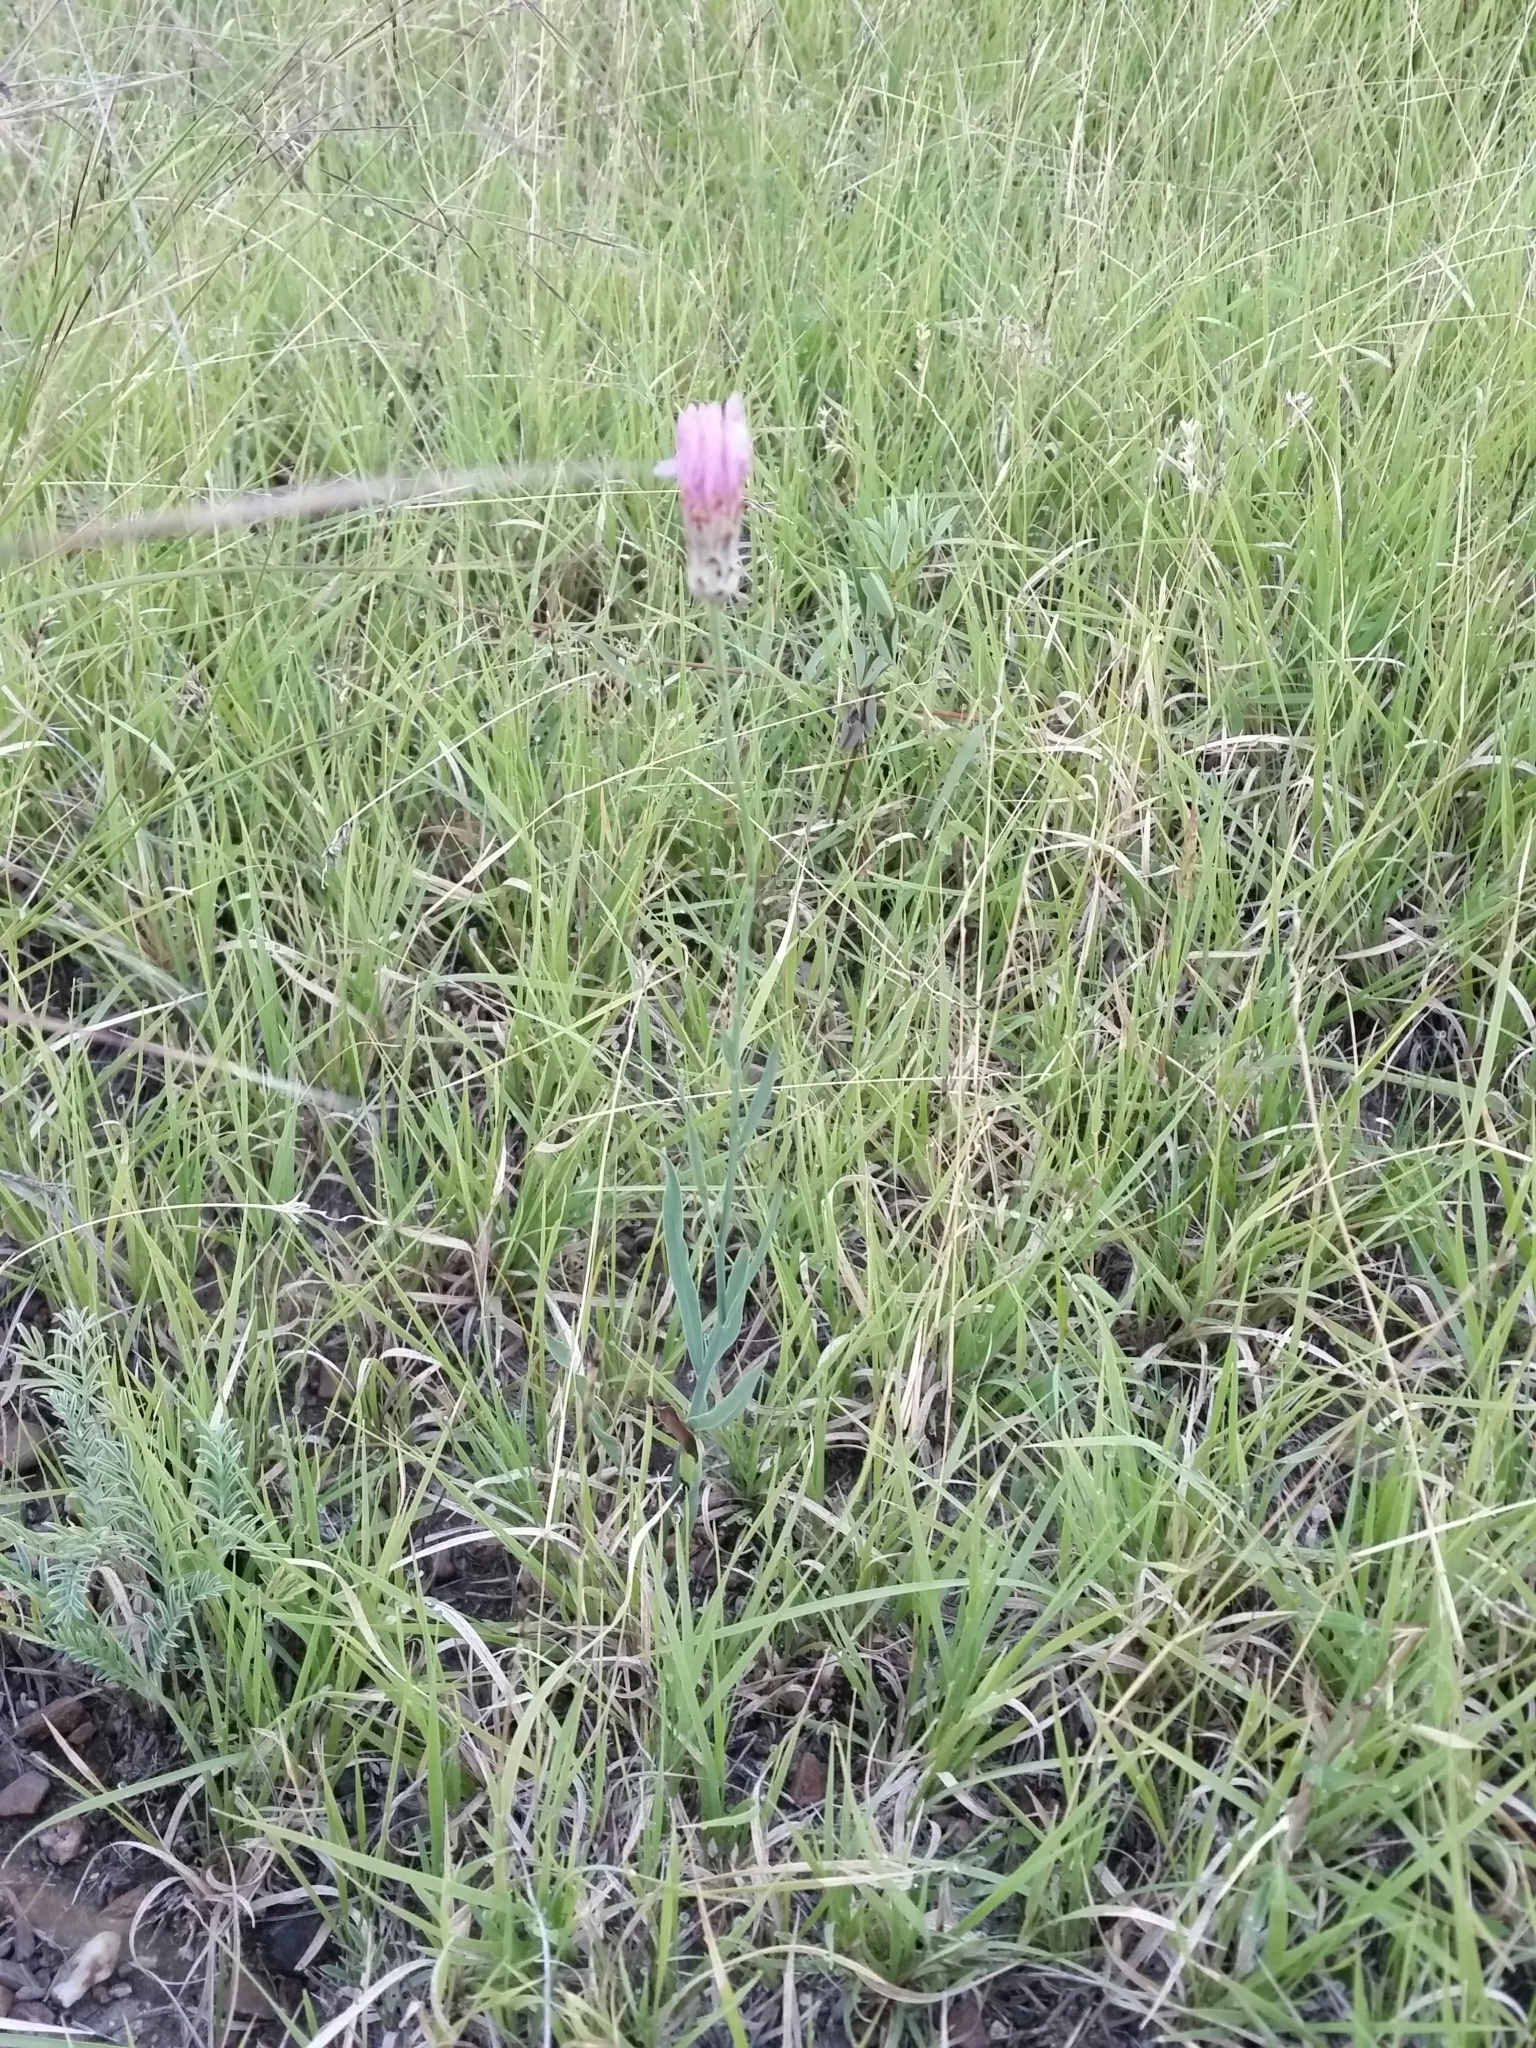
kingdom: Plantae
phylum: Tracheophyta
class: Magnoliopsida
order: Asterales
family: Asteraceae
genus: Pinaropappus
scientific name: Pinaropappus roseus
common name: Rock-lettuce
